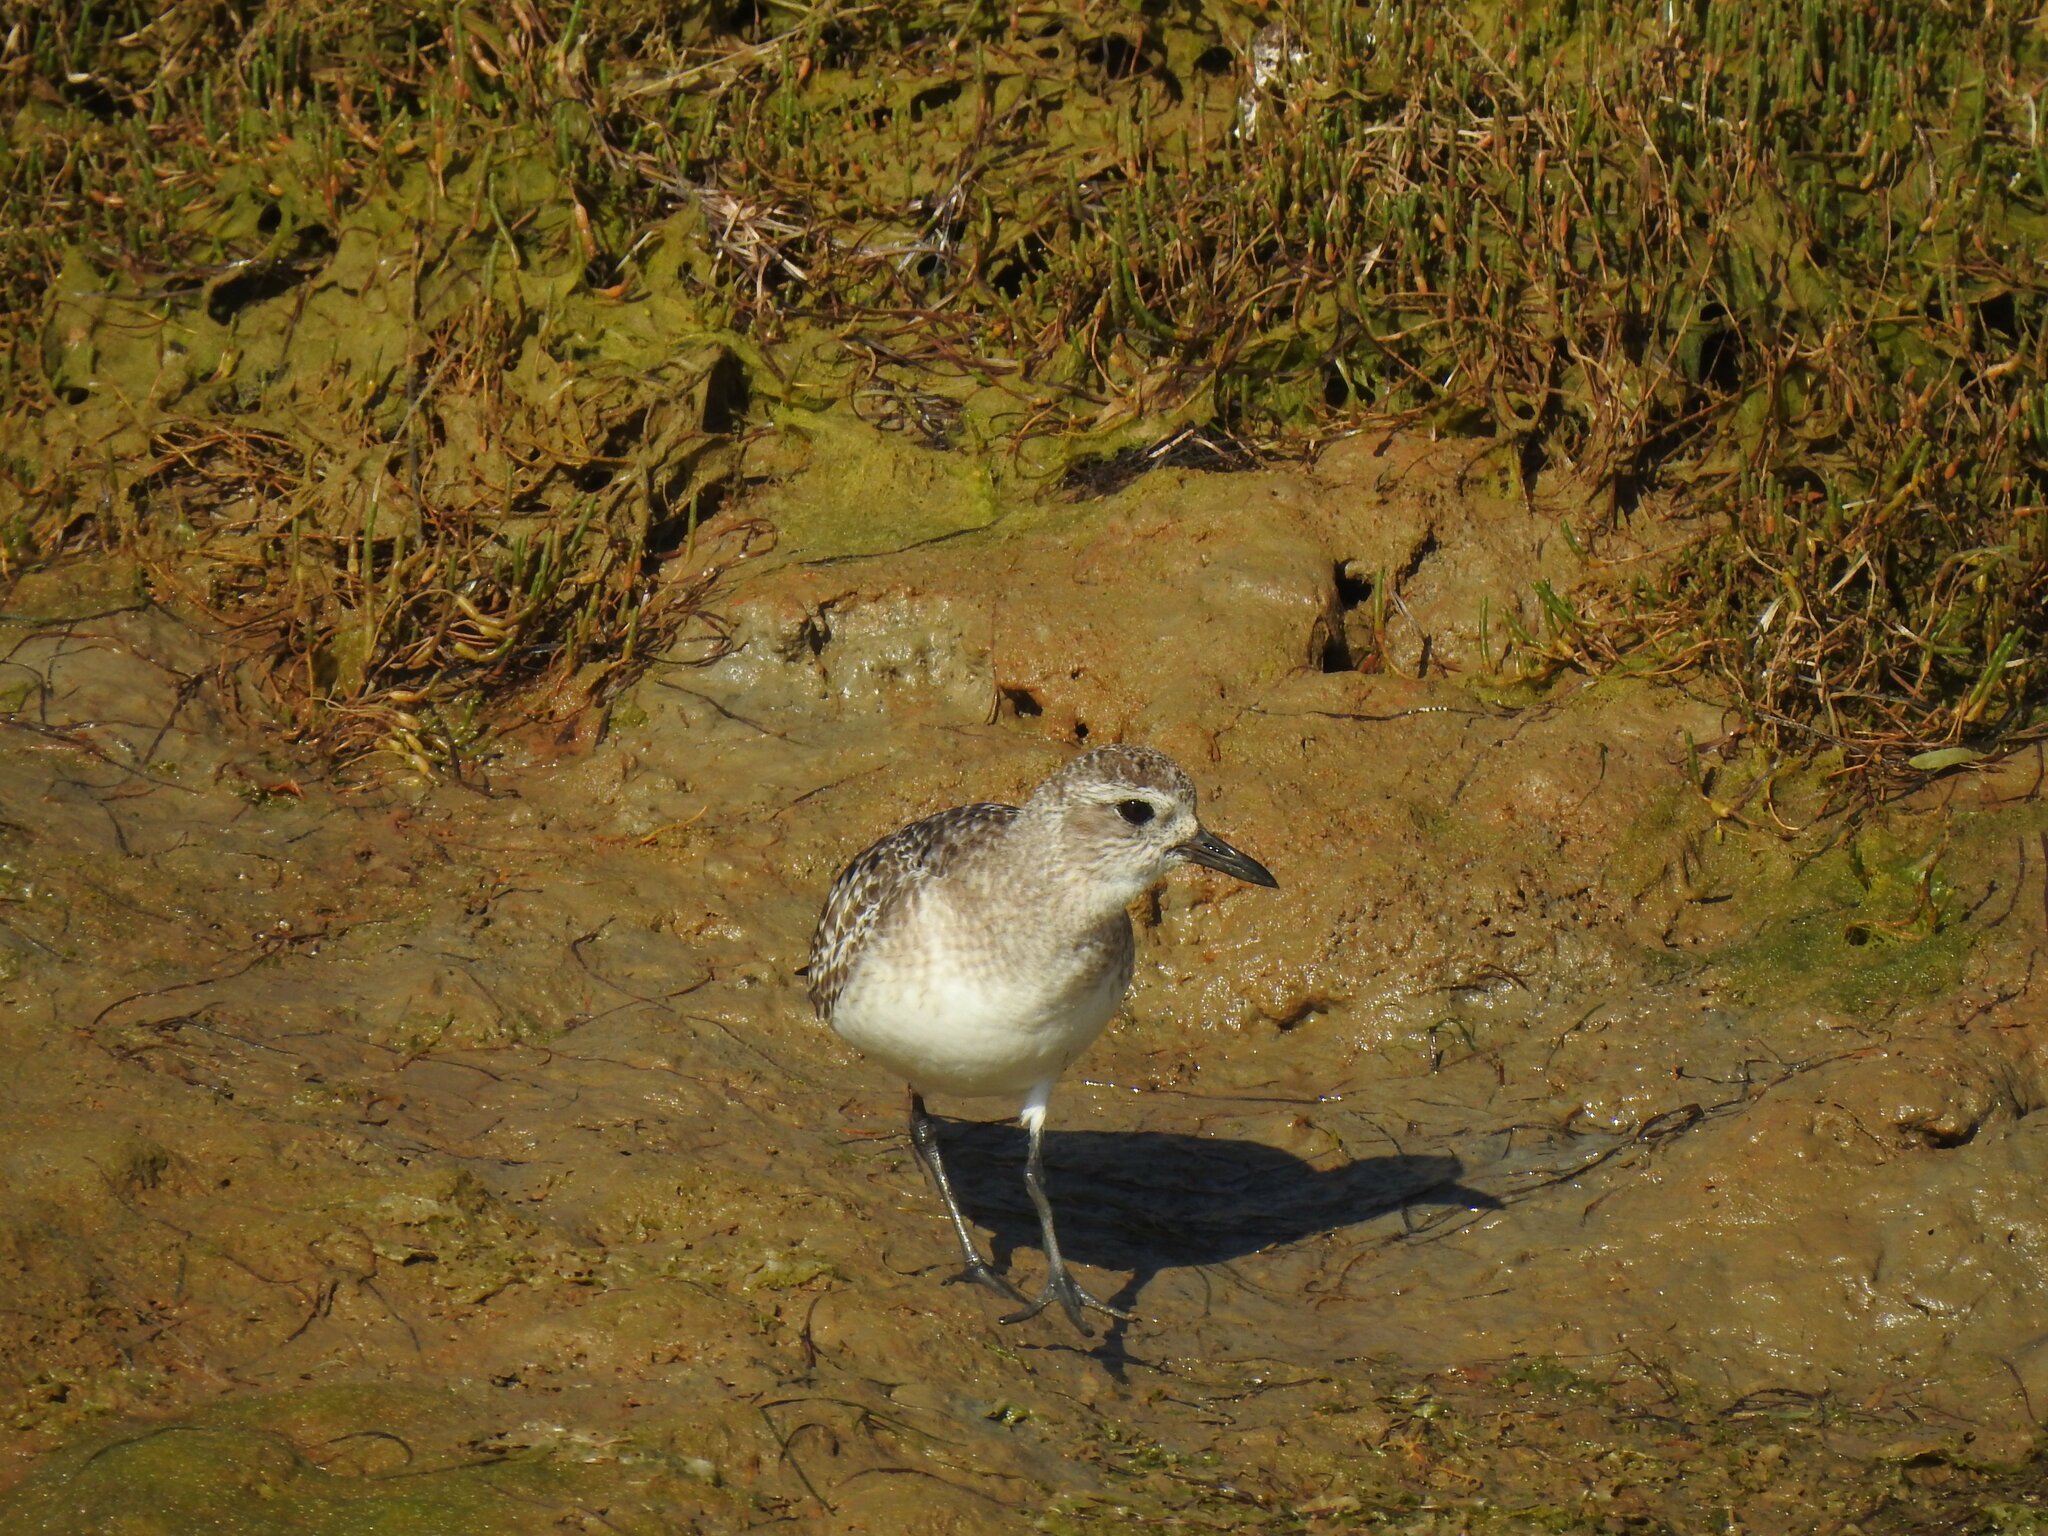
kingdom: Animalia
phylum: Chordata
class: Aves
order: Charadriiformes
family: Charadriidae
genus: Pluvialis
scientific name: Pluvialis squatarola
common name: Grey plover
